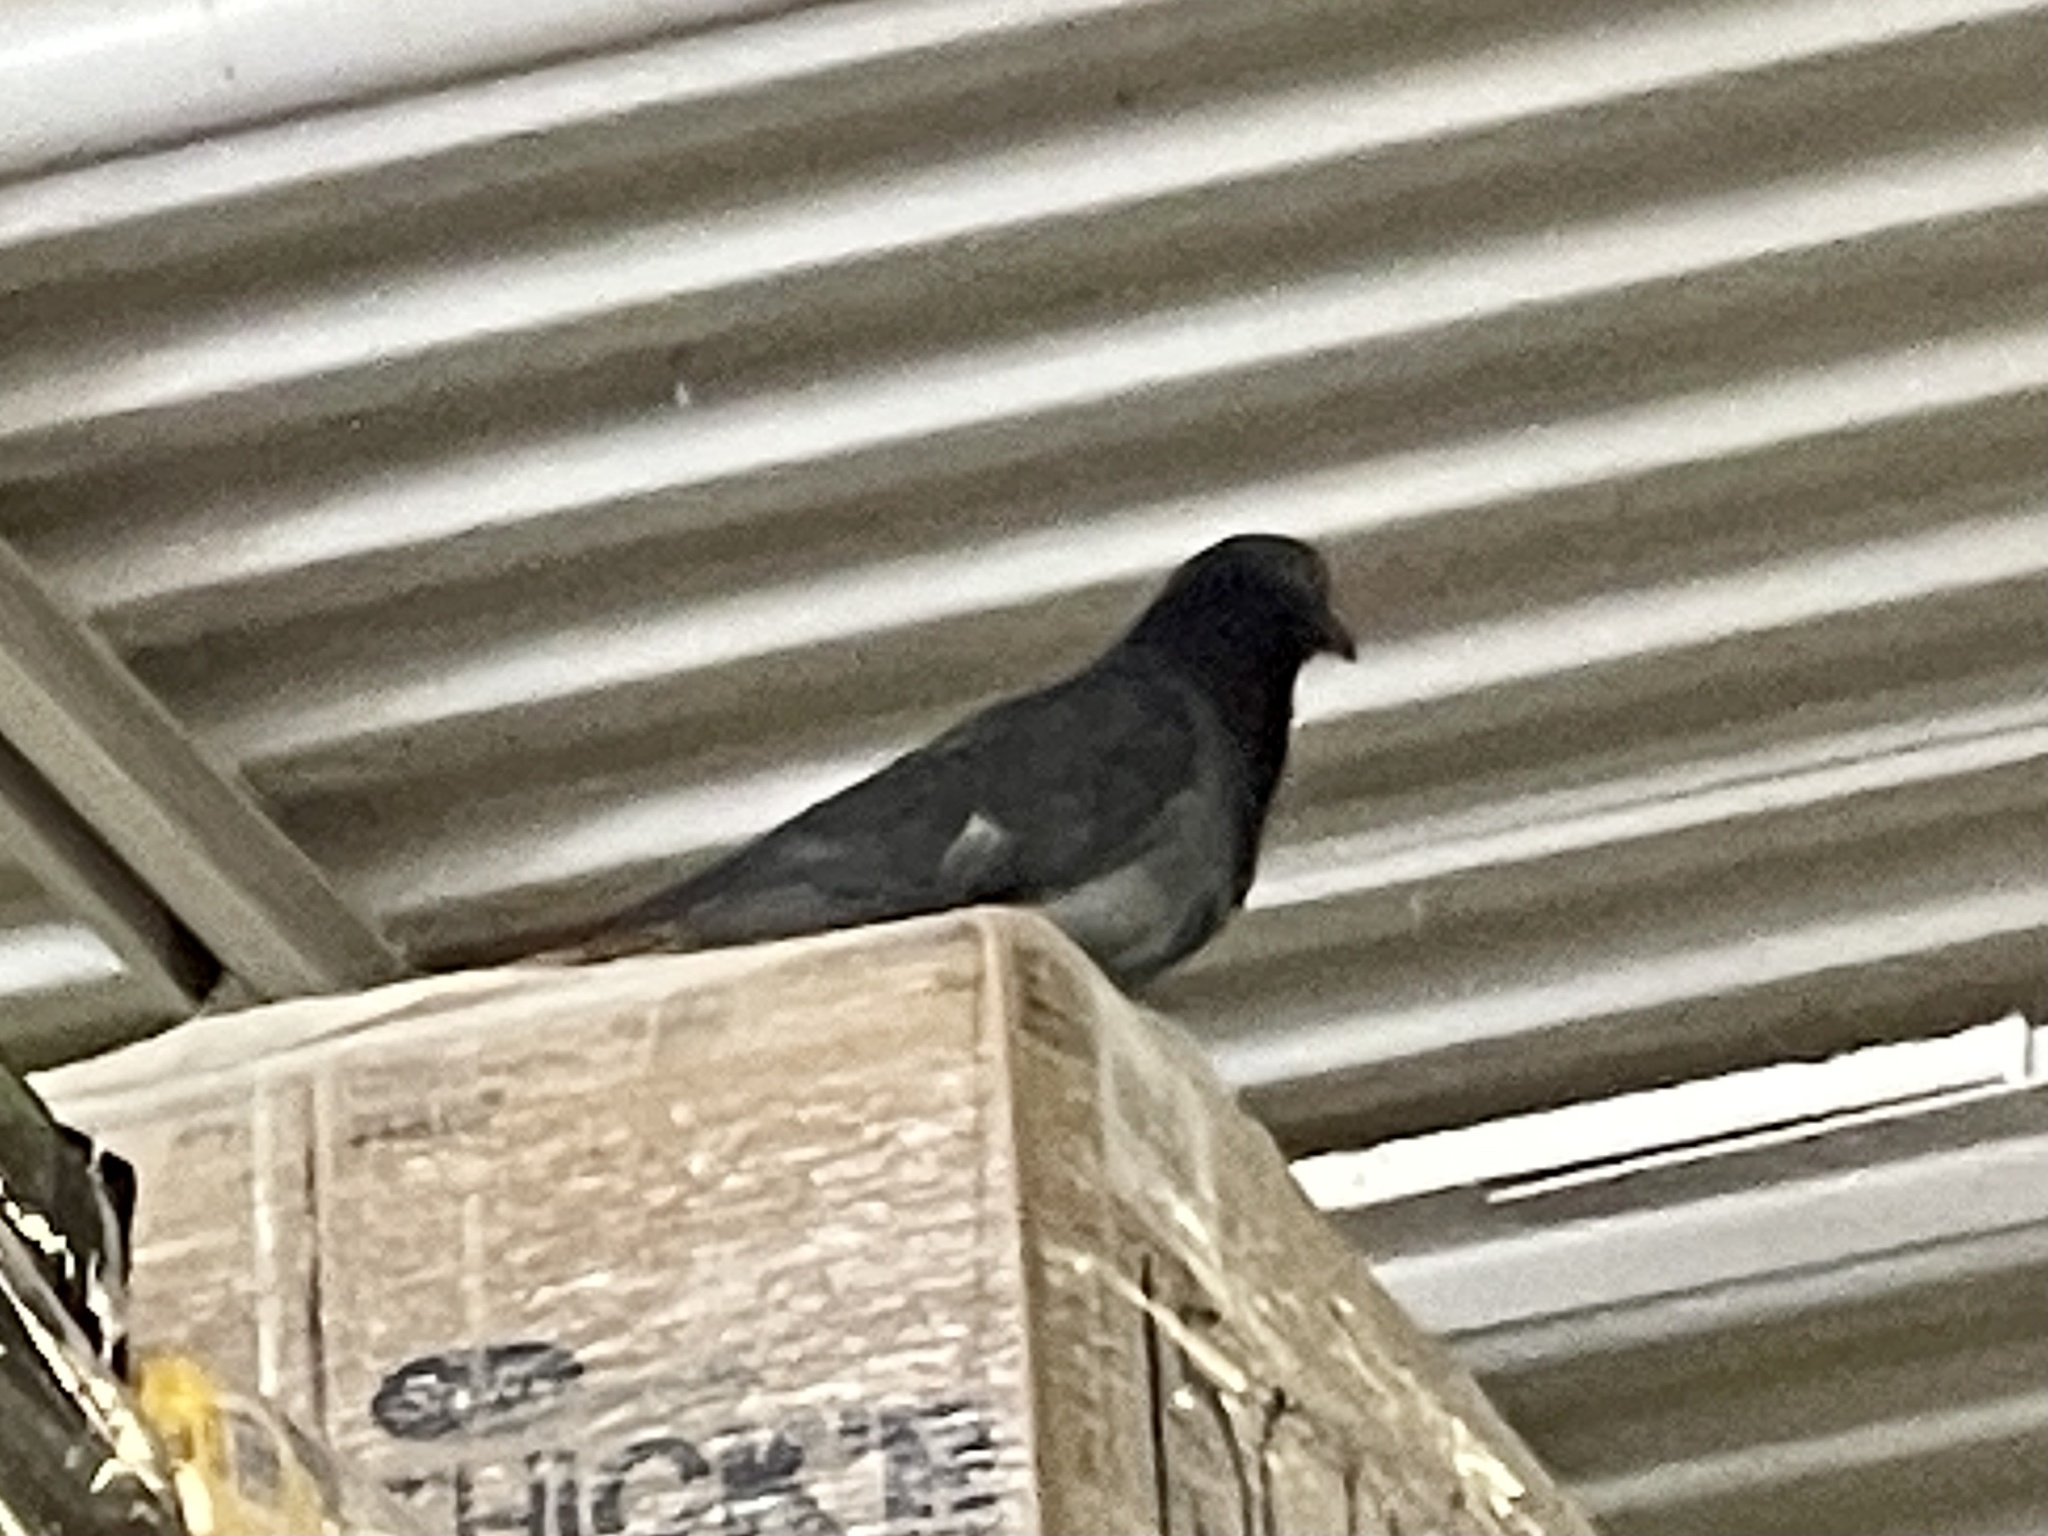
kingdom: Animalia
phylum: Chordata
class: Aves
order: Columbiformes
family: Columbidae
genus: Columba
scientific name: Columba livia
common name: Rock pigeon
